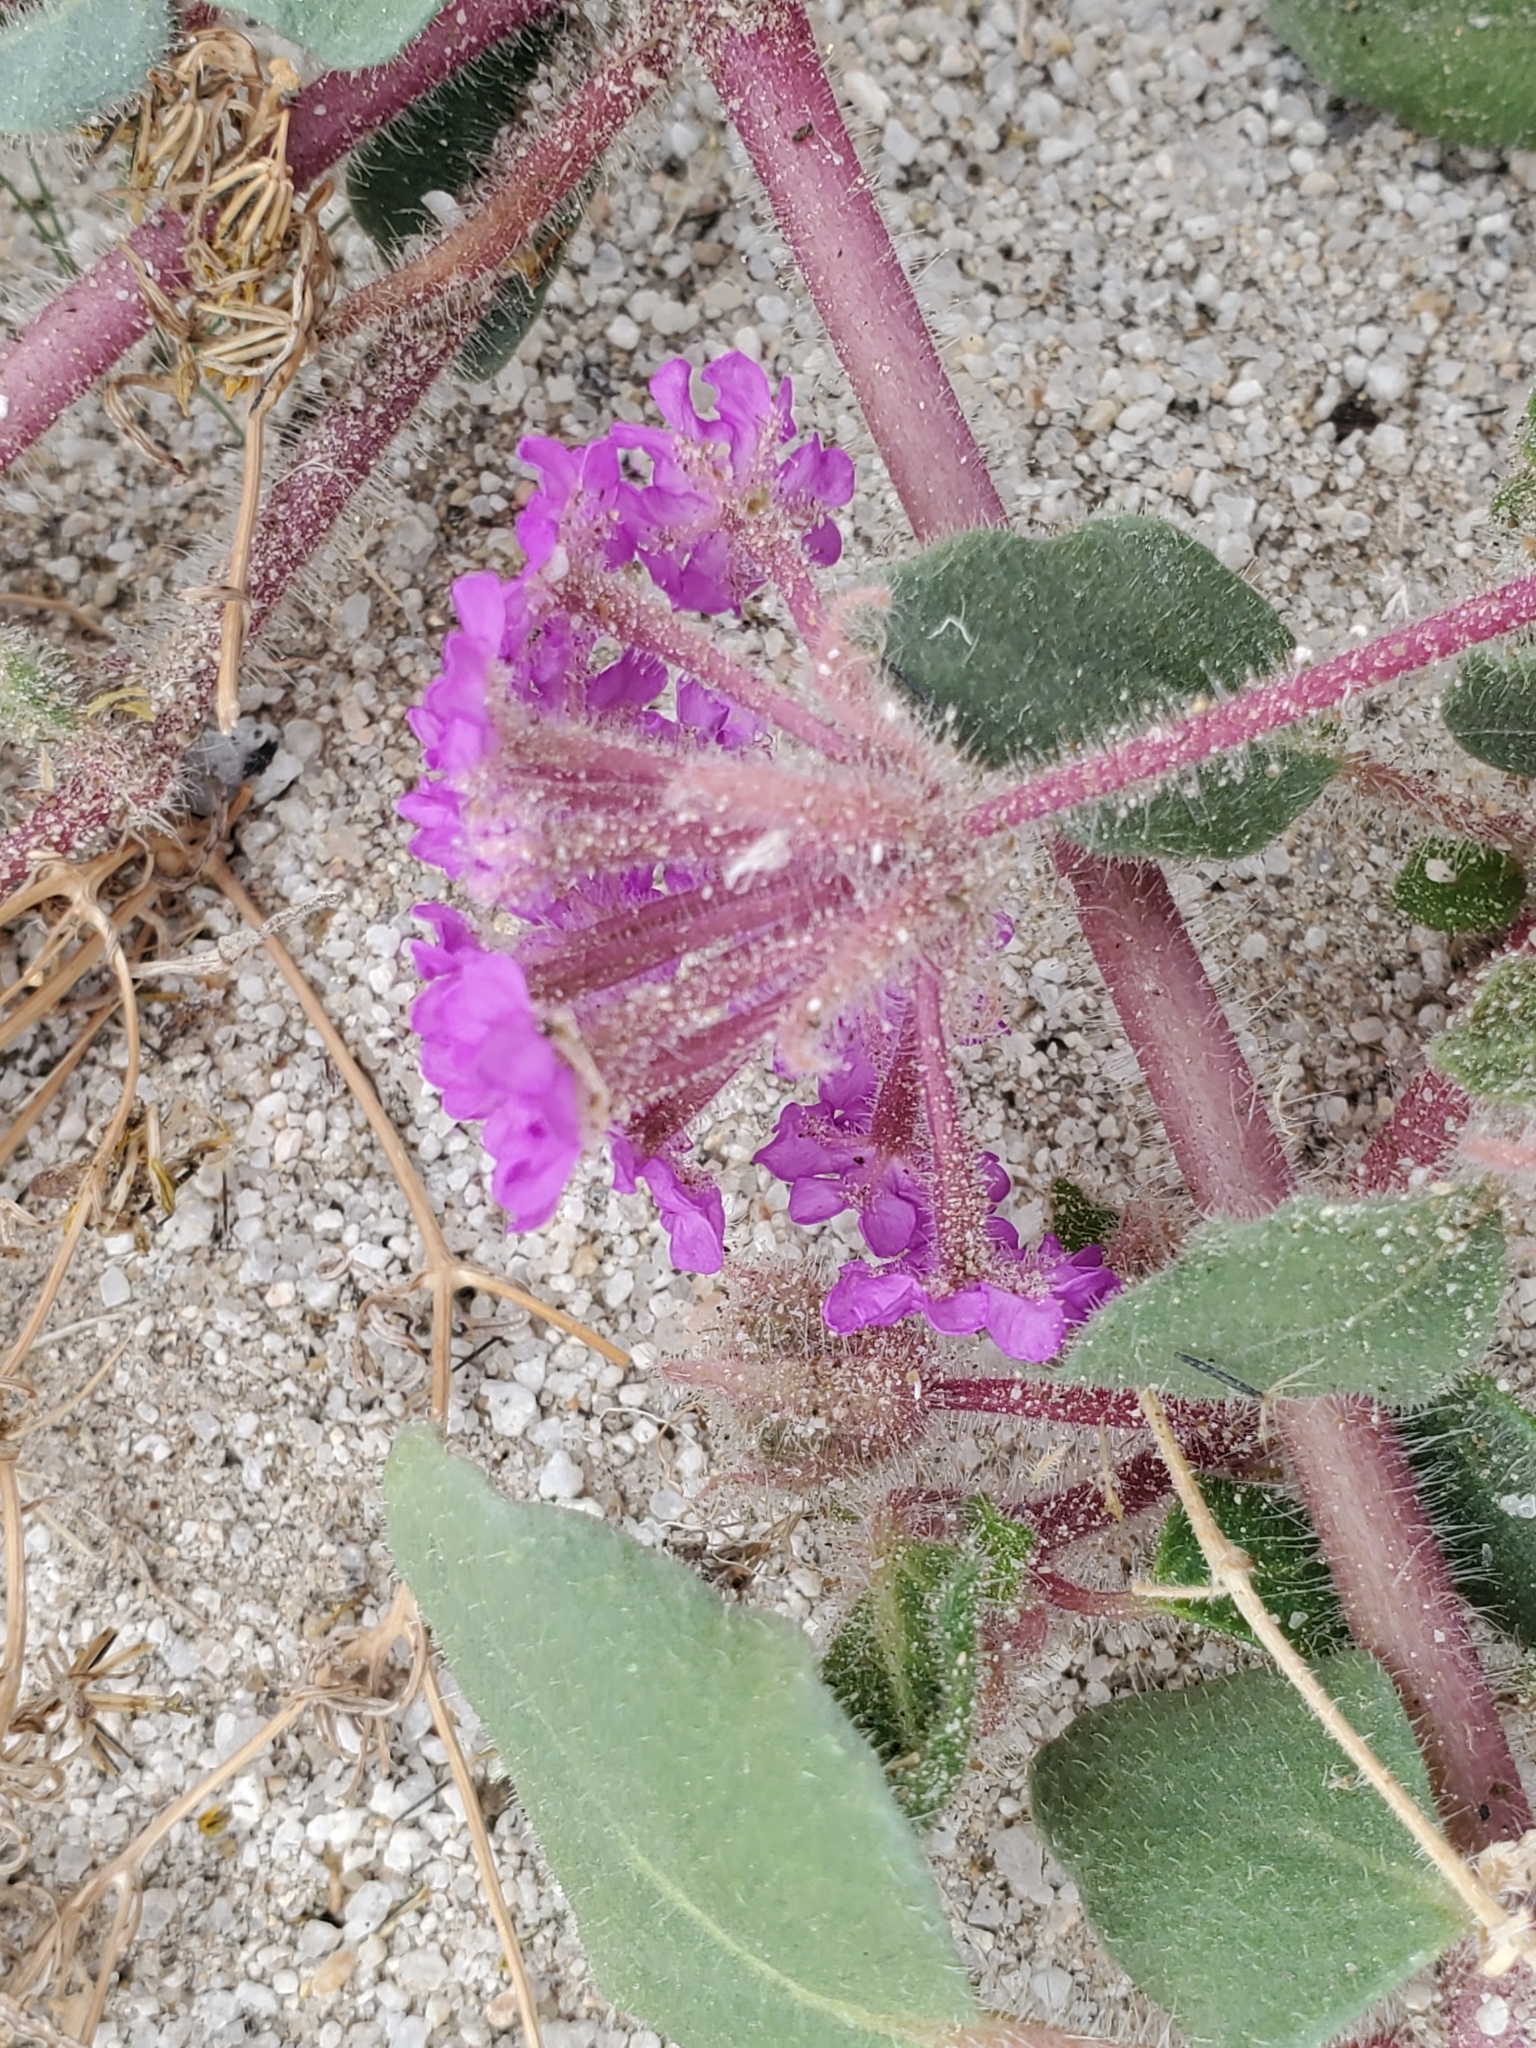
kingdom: Plantae
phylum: Tracheophyta
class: Magnoliopsida
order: Caryophyllales
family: Nyctaginaceae
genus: Abronia
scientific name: Abronia villosa
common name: Desert sand-verbena
